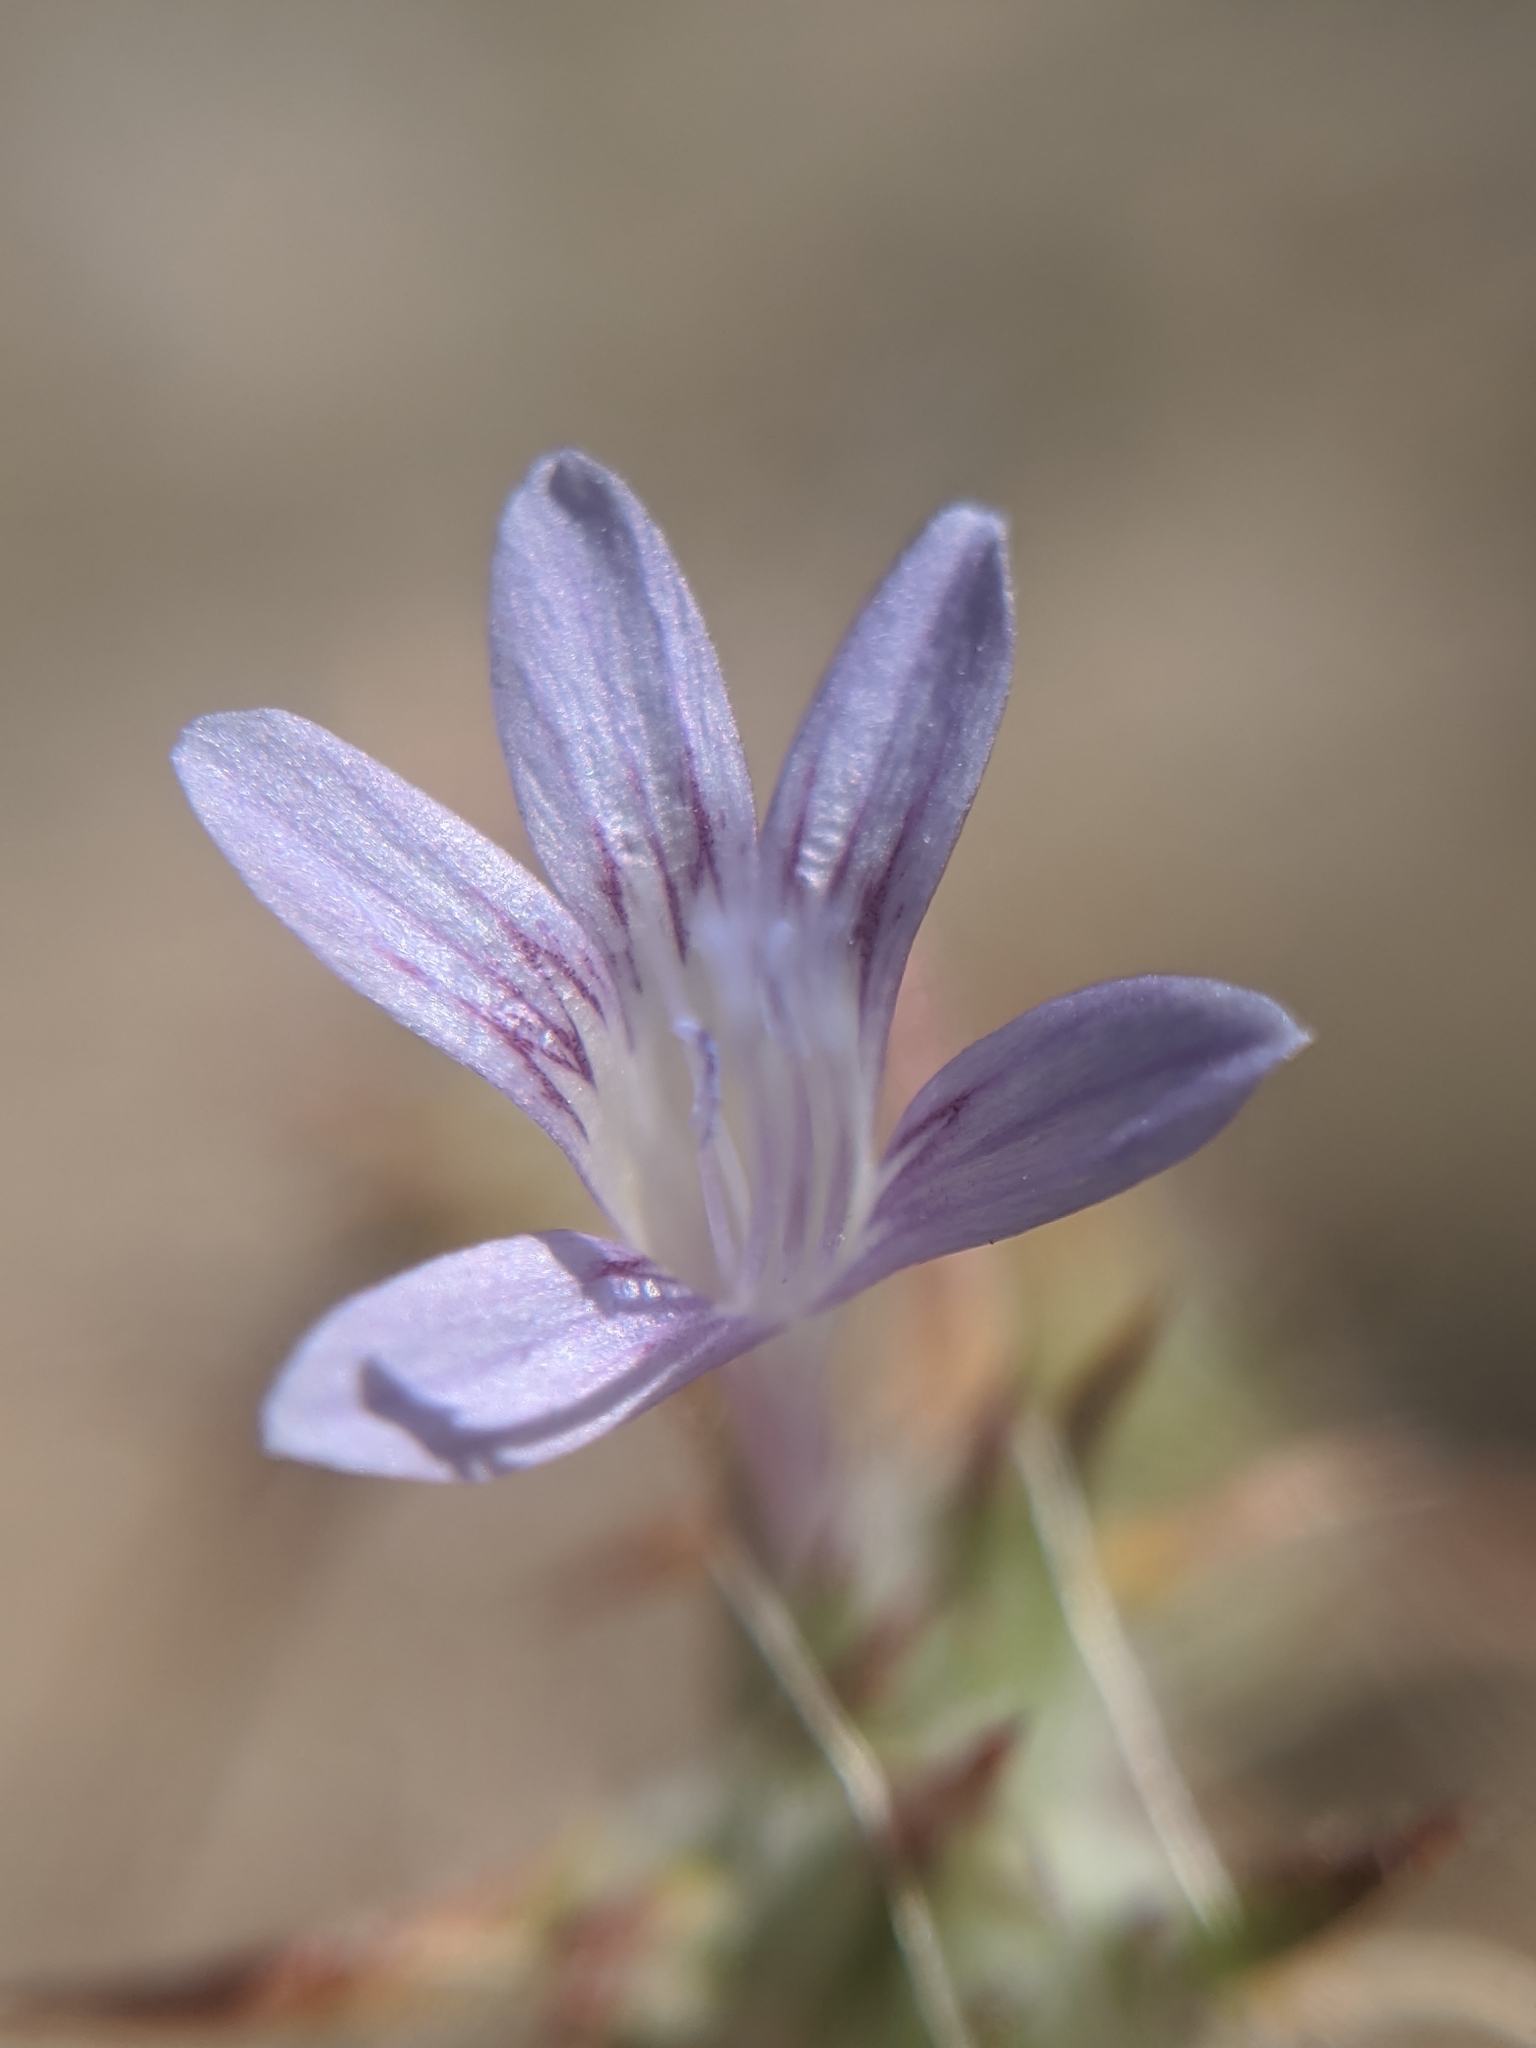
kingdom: Plantae
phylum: Tracheophyta
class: Magnoliopsida
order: Ericales
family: Polemoniaceae
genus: Eriastrum
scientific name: Eriastrum eremicum
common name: Desert eriastrum
